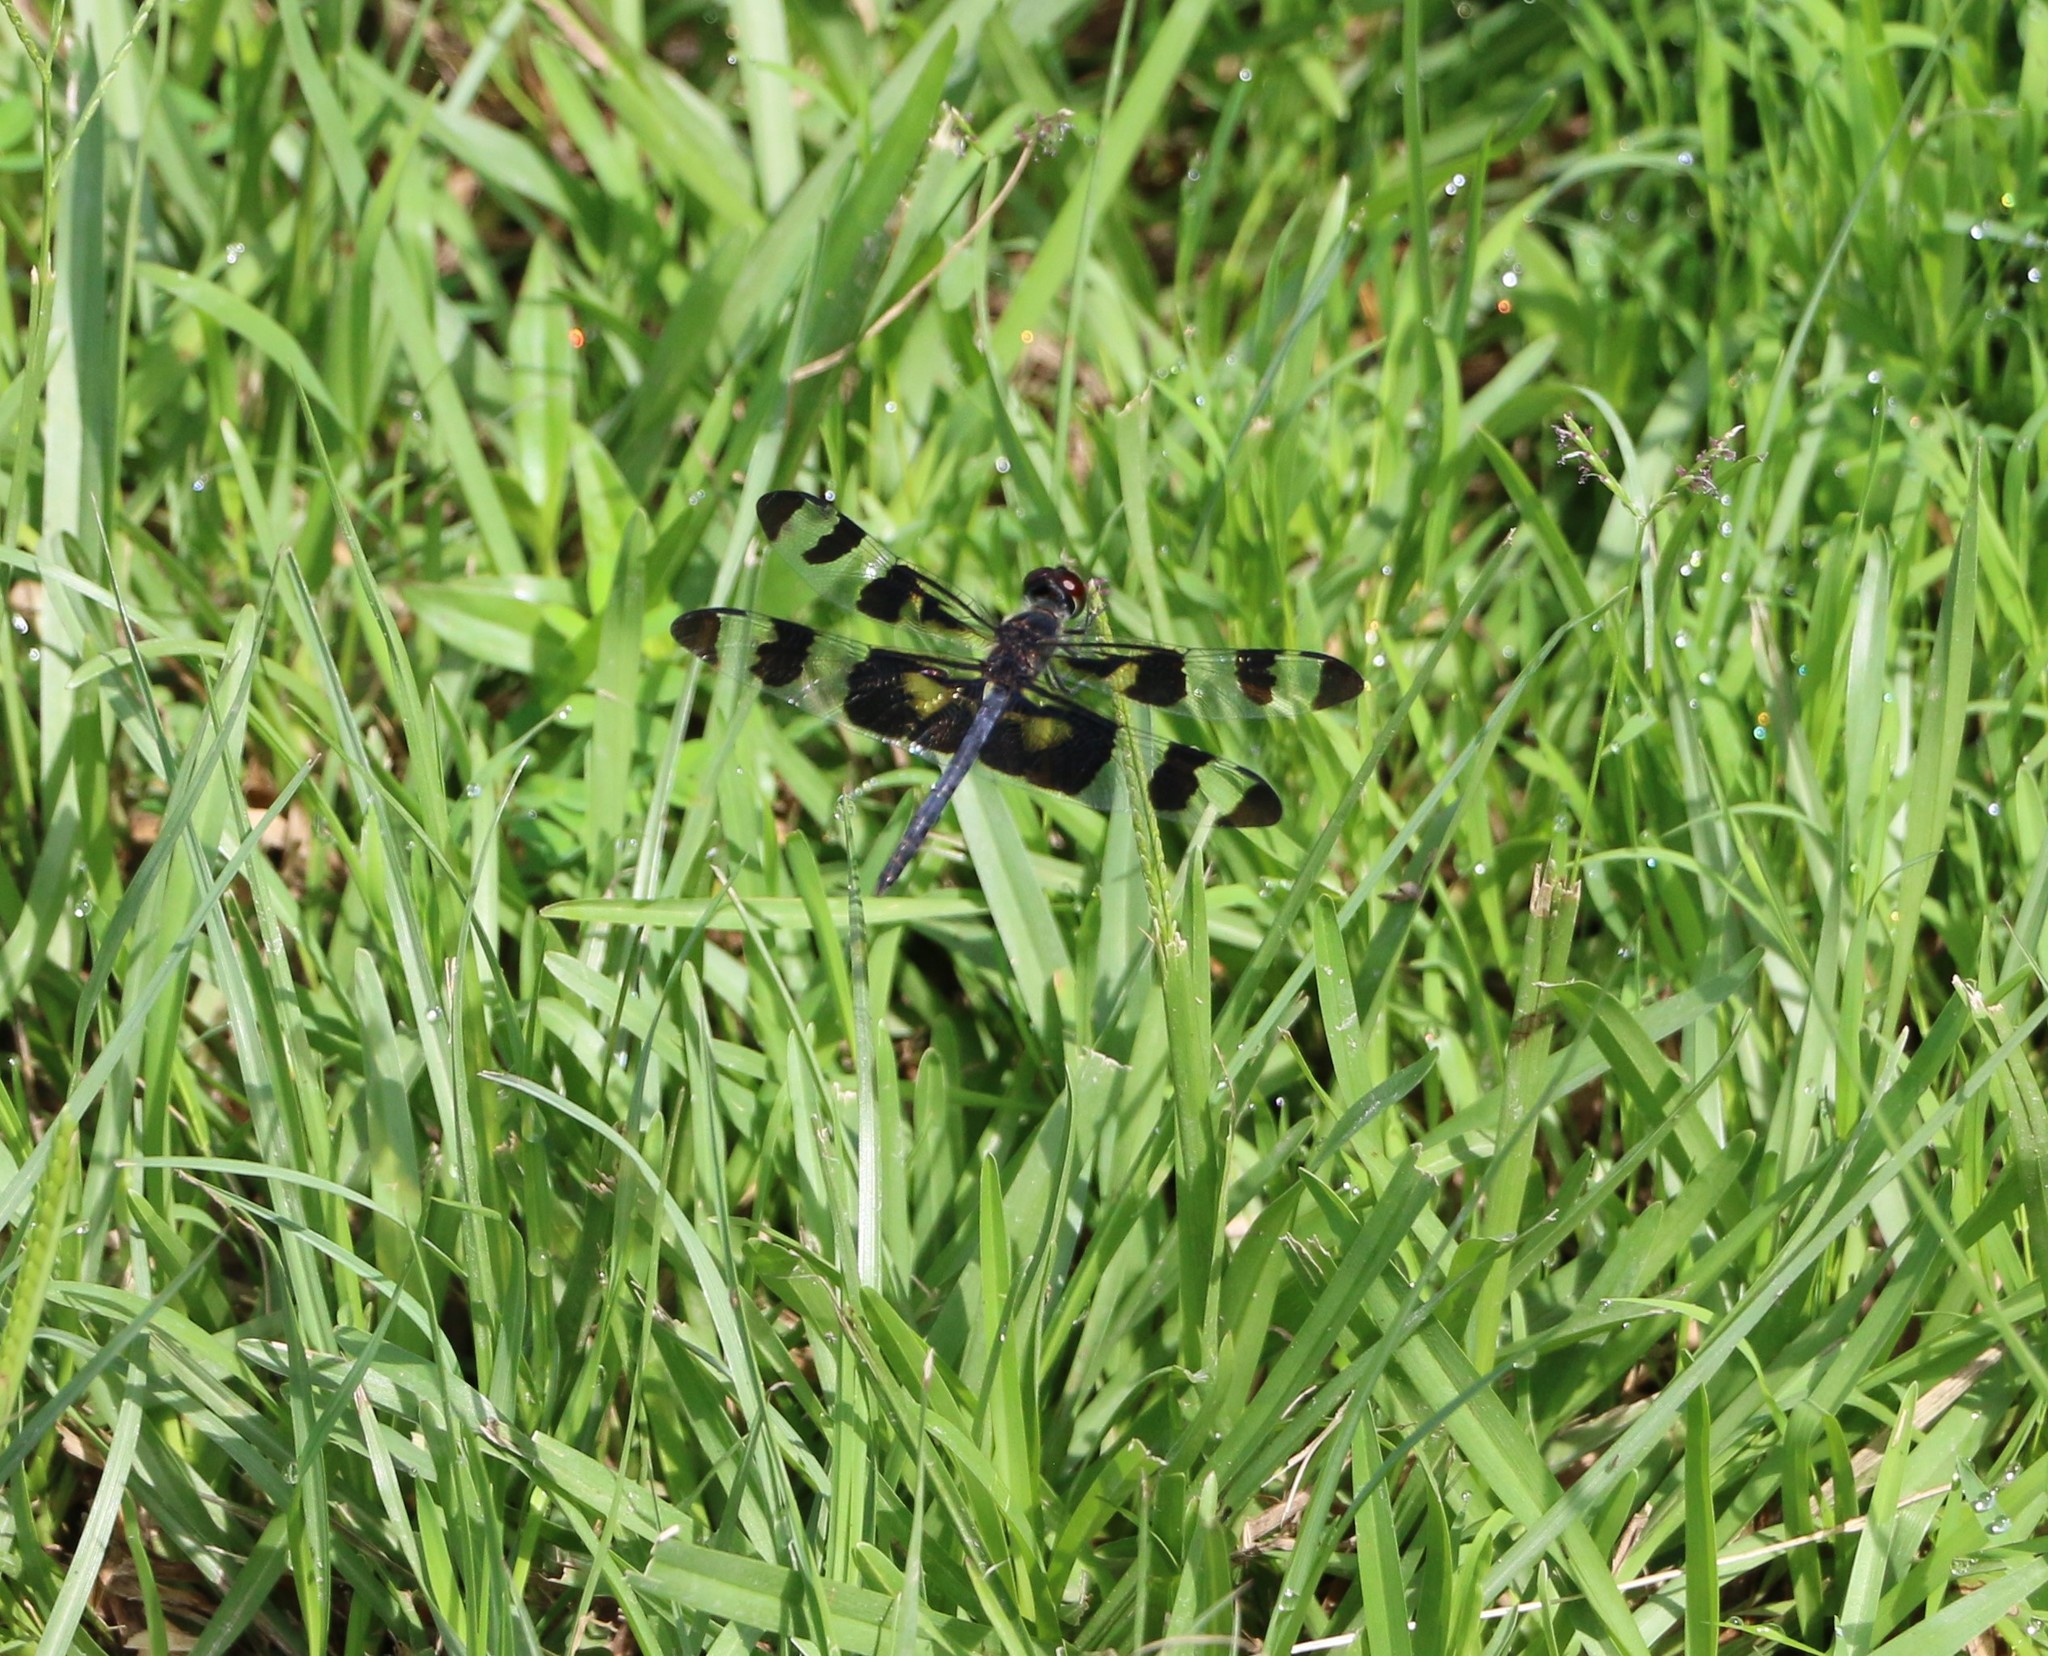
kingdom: Animalia
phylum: Arthropoda
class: Insecta
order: Odonata
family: Libellulidae
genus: Celithemis
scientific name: Celithemis fasciata
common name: Banded pennant
